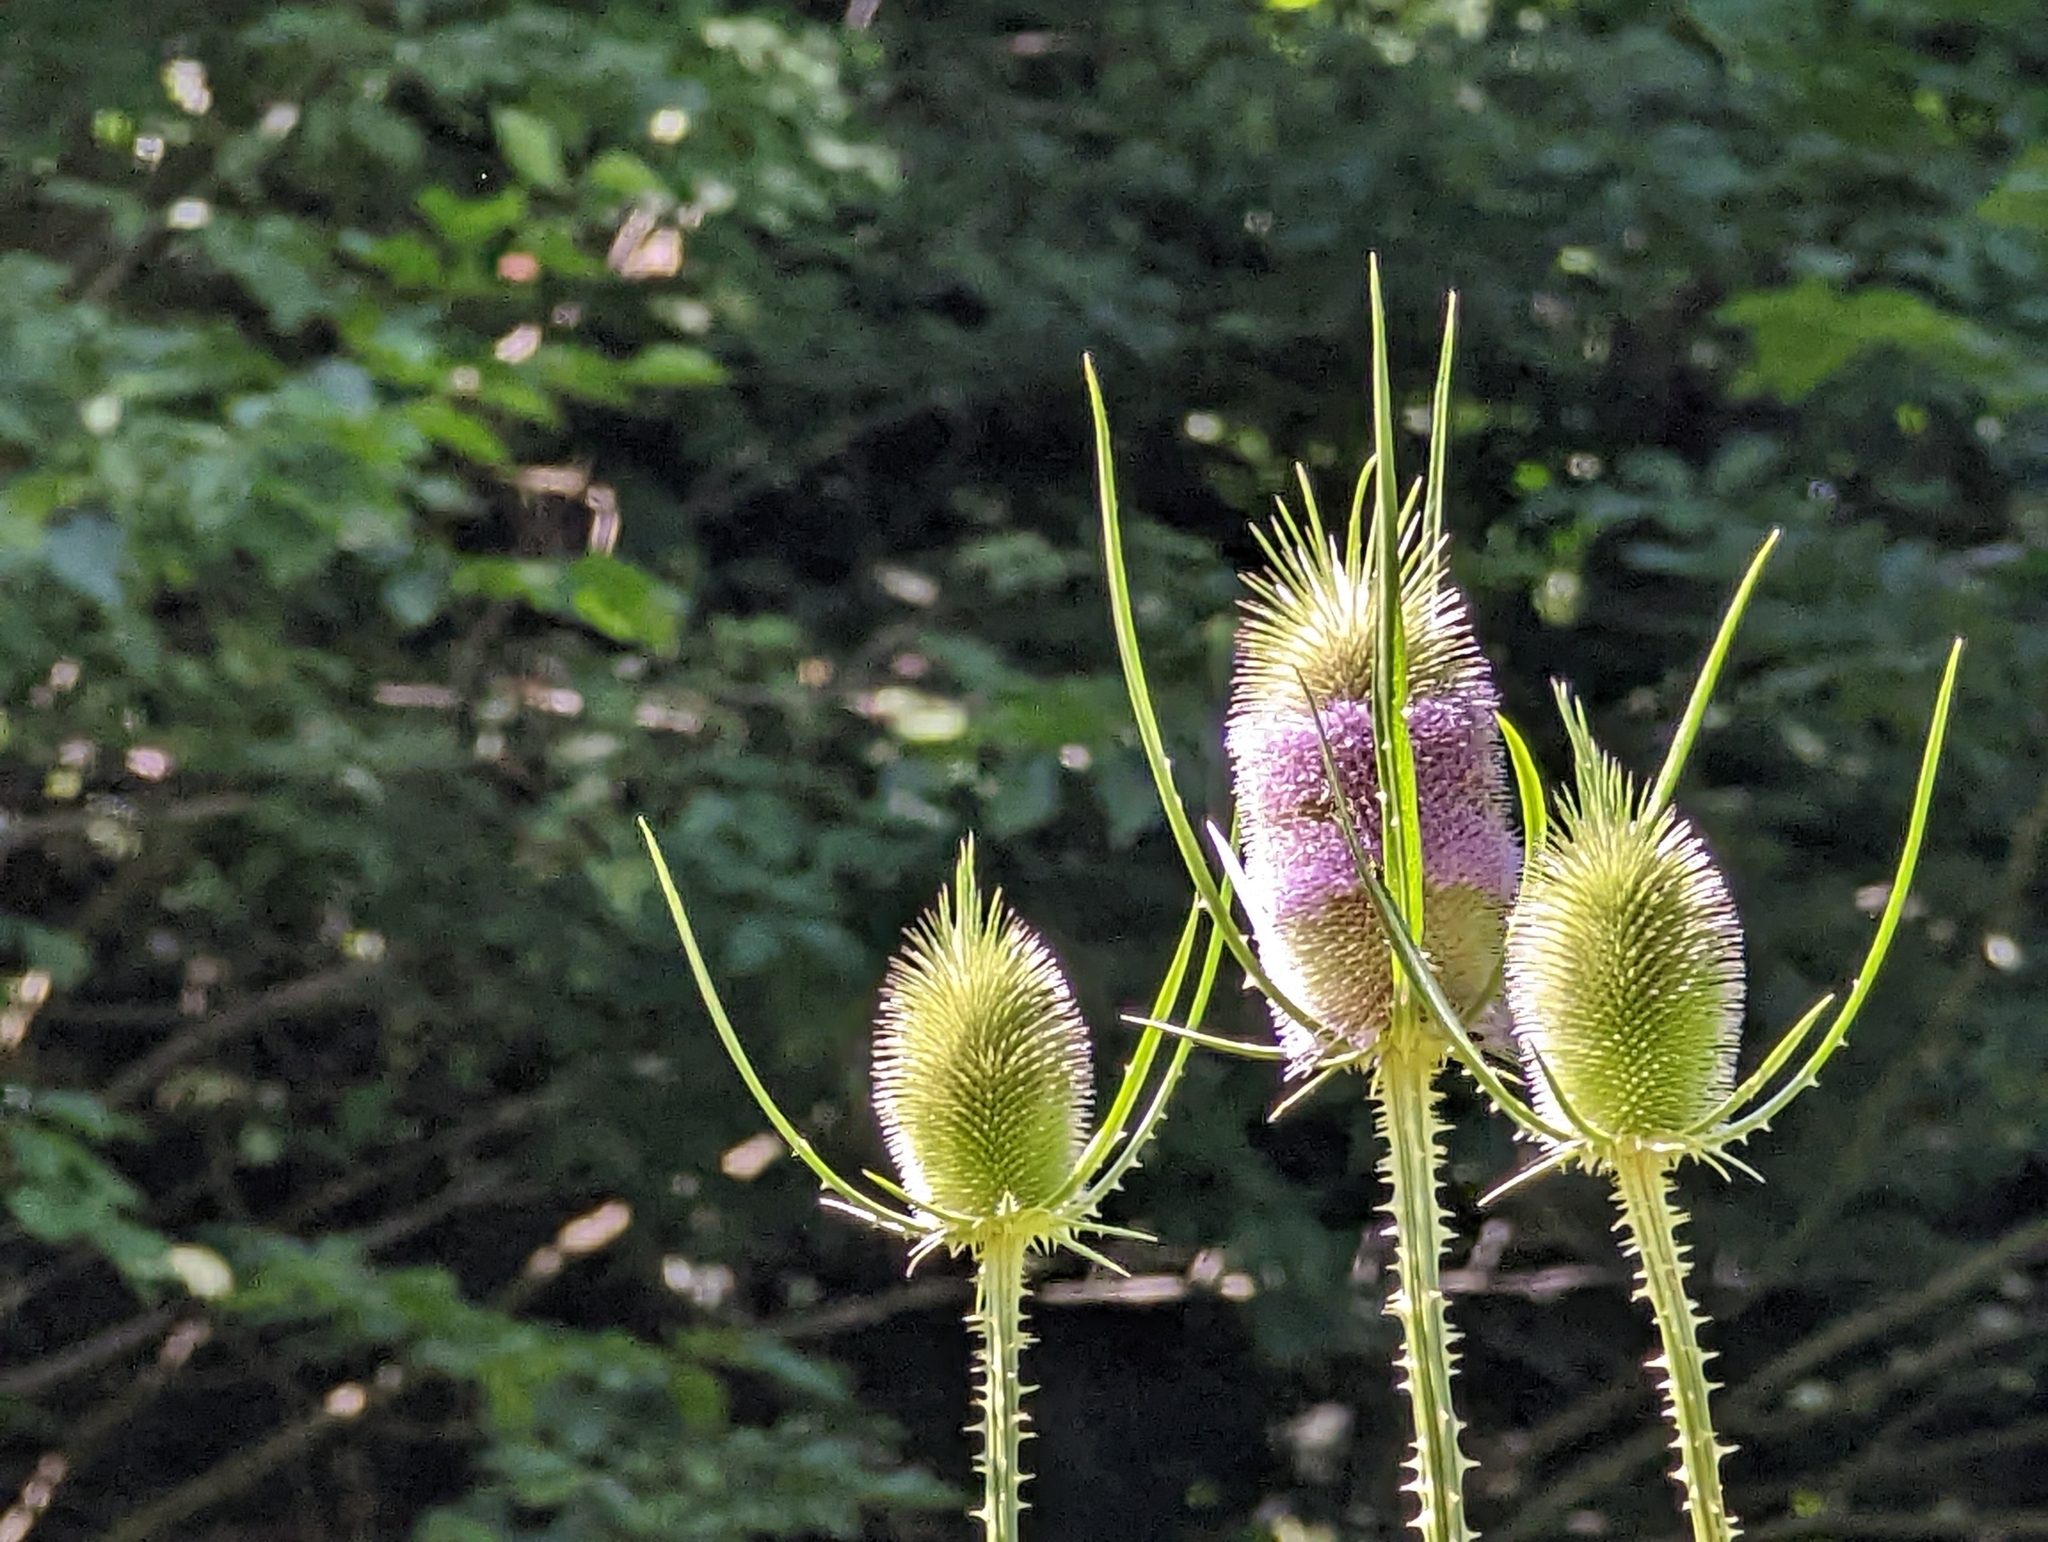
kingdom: Plantae
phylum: Tracheophyta
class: Magnoliopsida
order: Dipsacales
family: Caprifoliaceae
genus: Dipsacus
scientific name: Dipsacus fullonum
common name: Teasel
